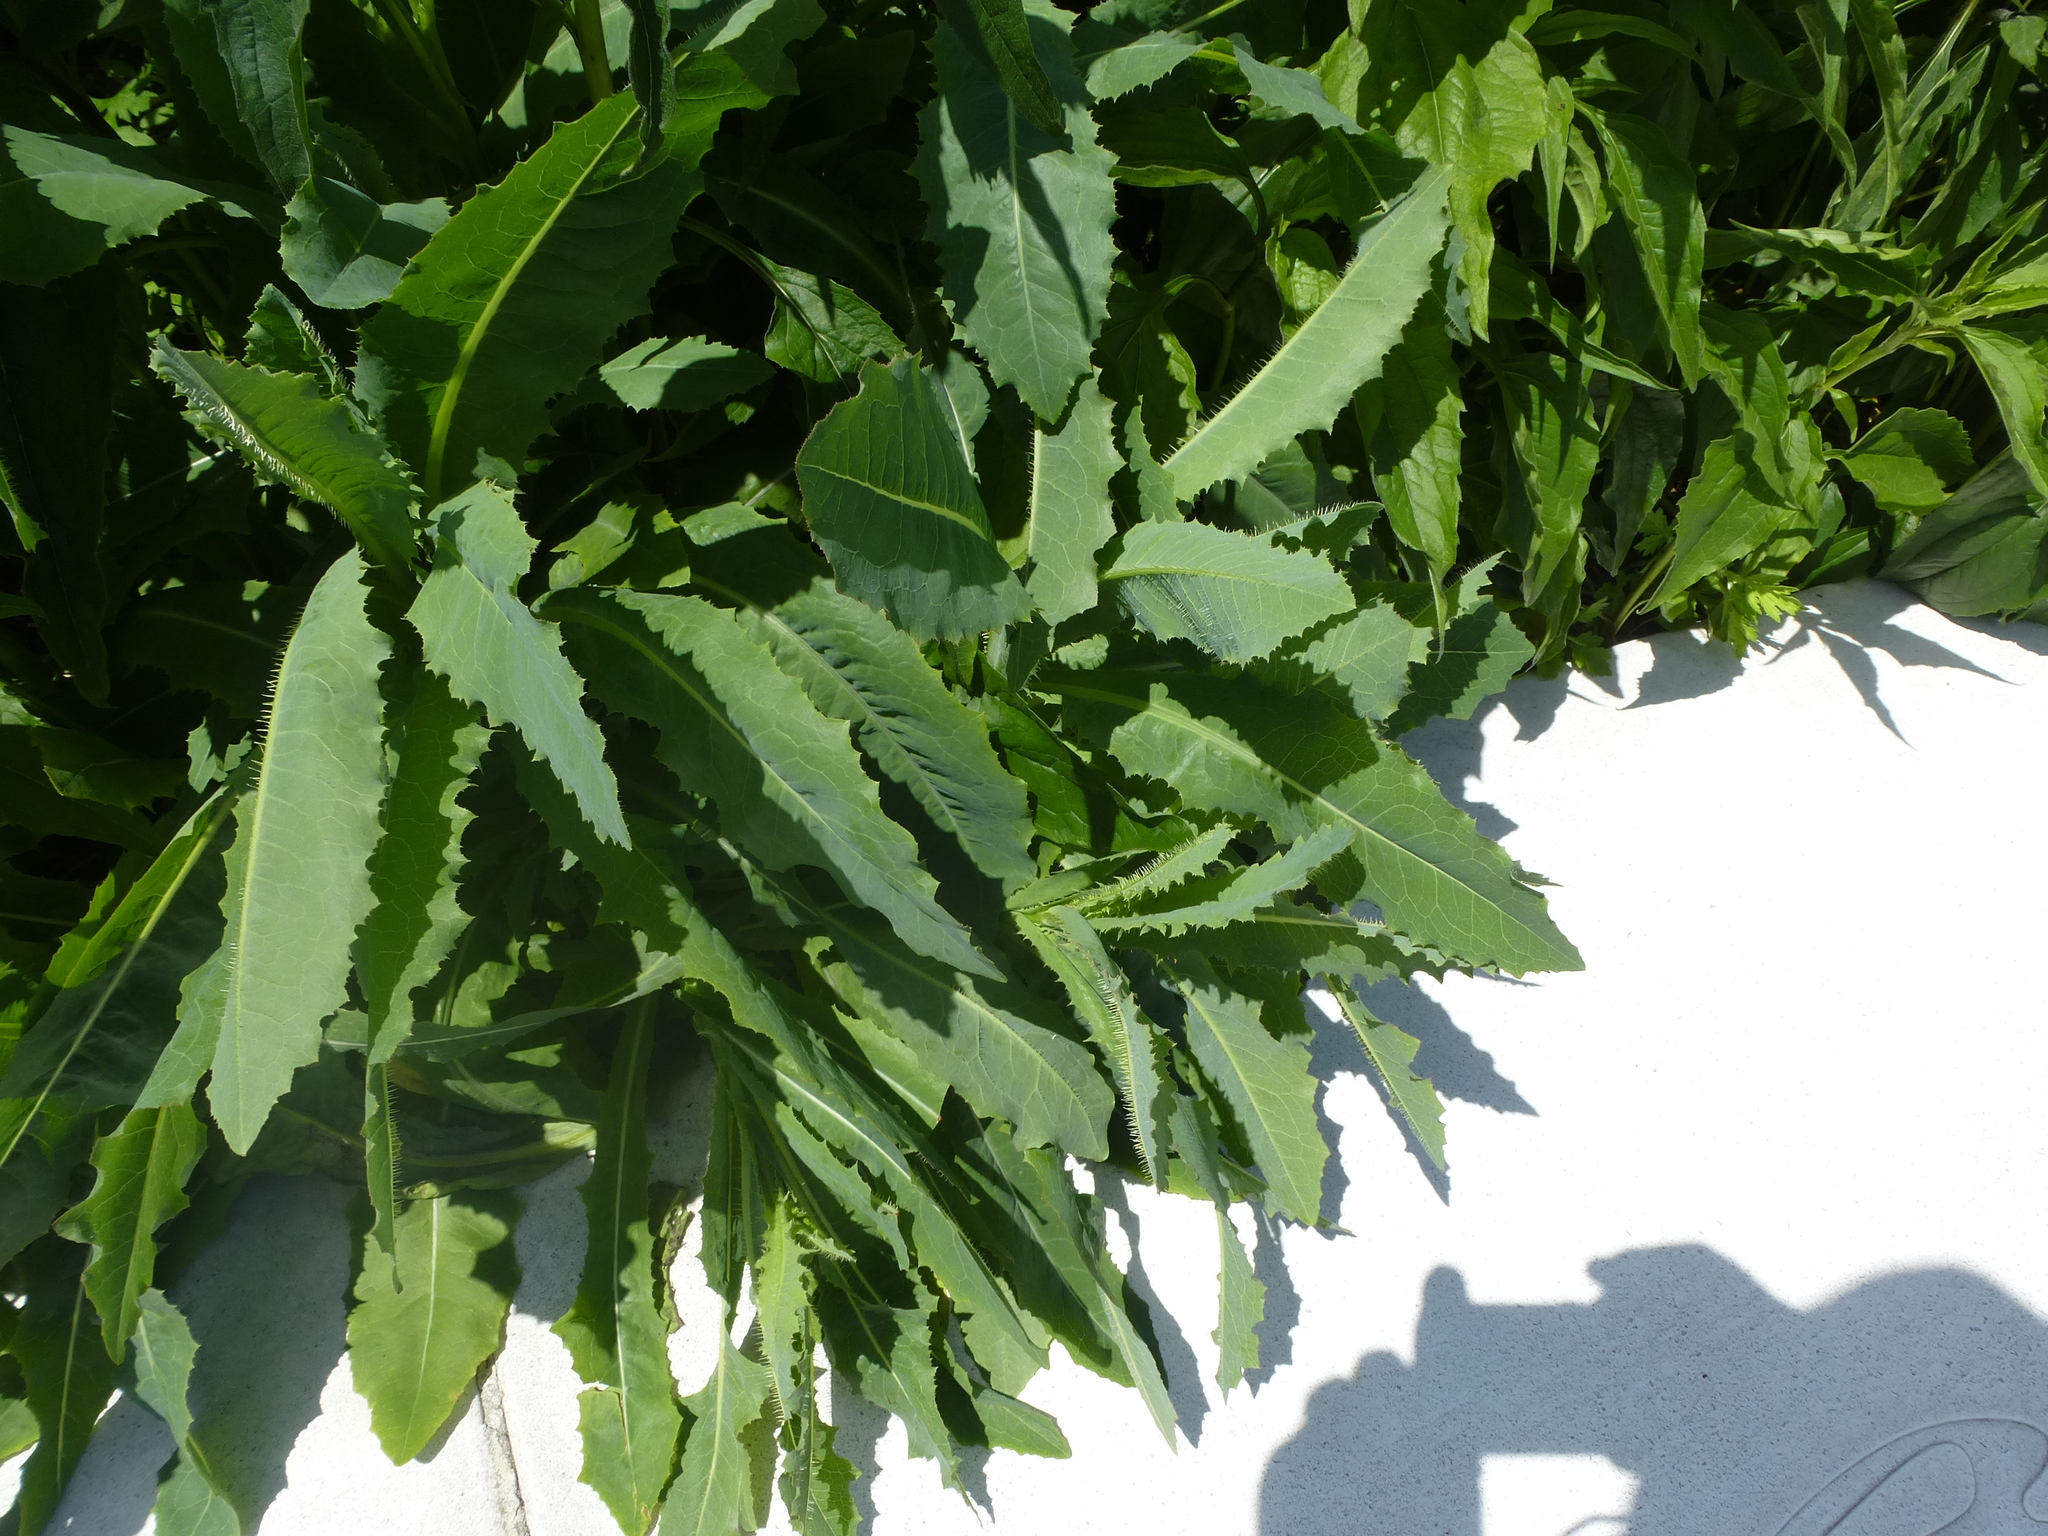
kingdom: Plantae
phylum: Tracheophyta
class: Magnoliopsida
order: Asterales
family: Asteraceae
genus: Lactuca
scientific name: Lactuca serriola
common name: Prickly lettuce
